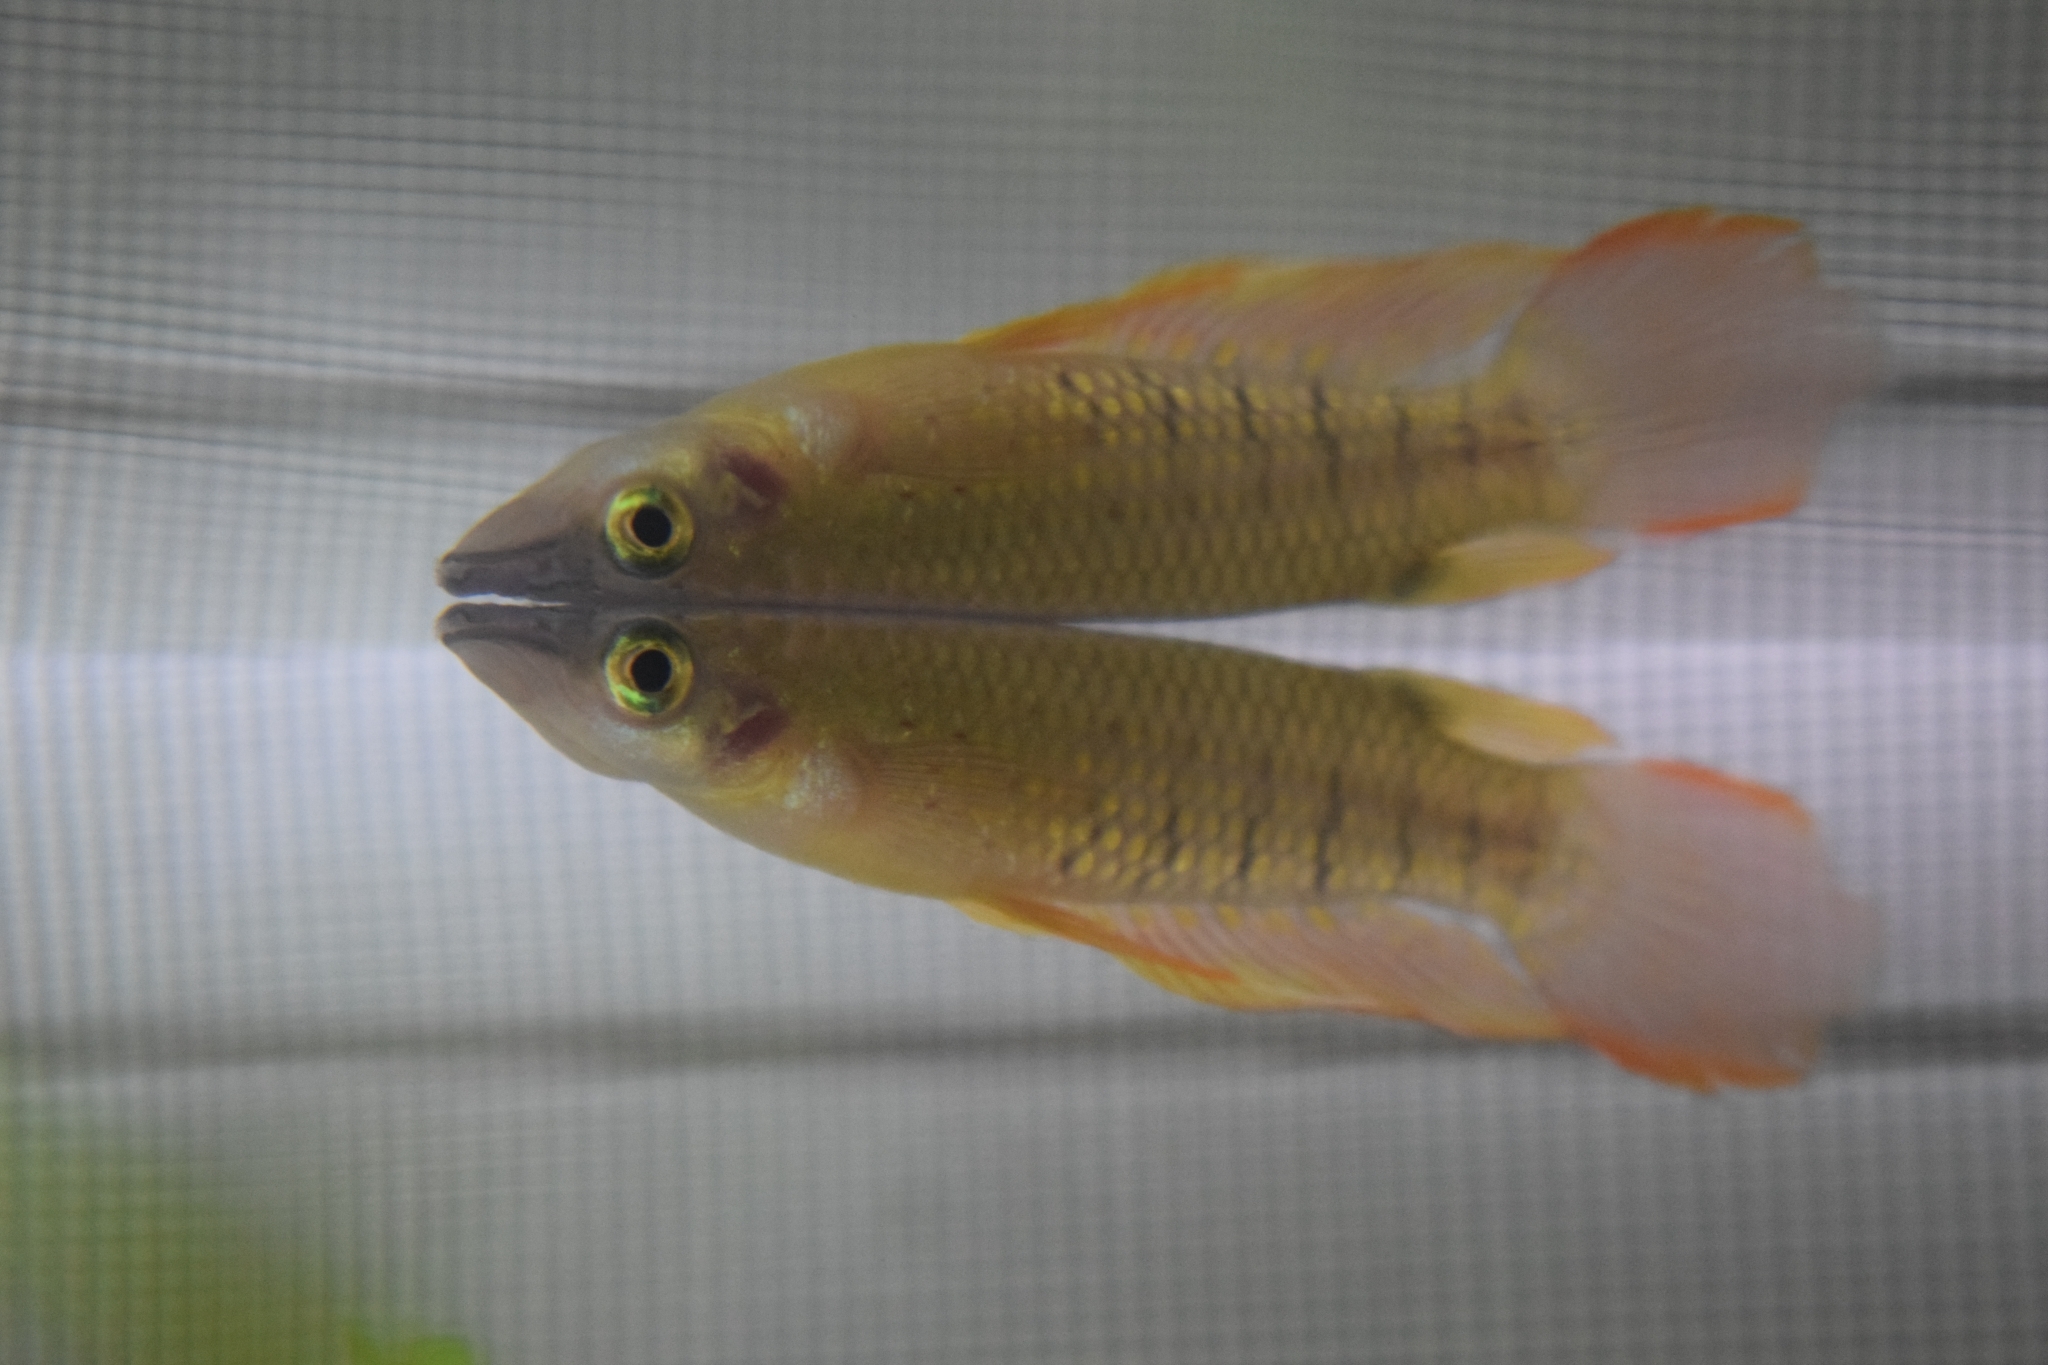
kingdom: Animalia
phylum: Chordata
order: Cyprinodontiformes
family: Aplocheilidae
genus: Aplocheilus
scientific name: Aplocheilus lineatus
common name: Striped panchax
